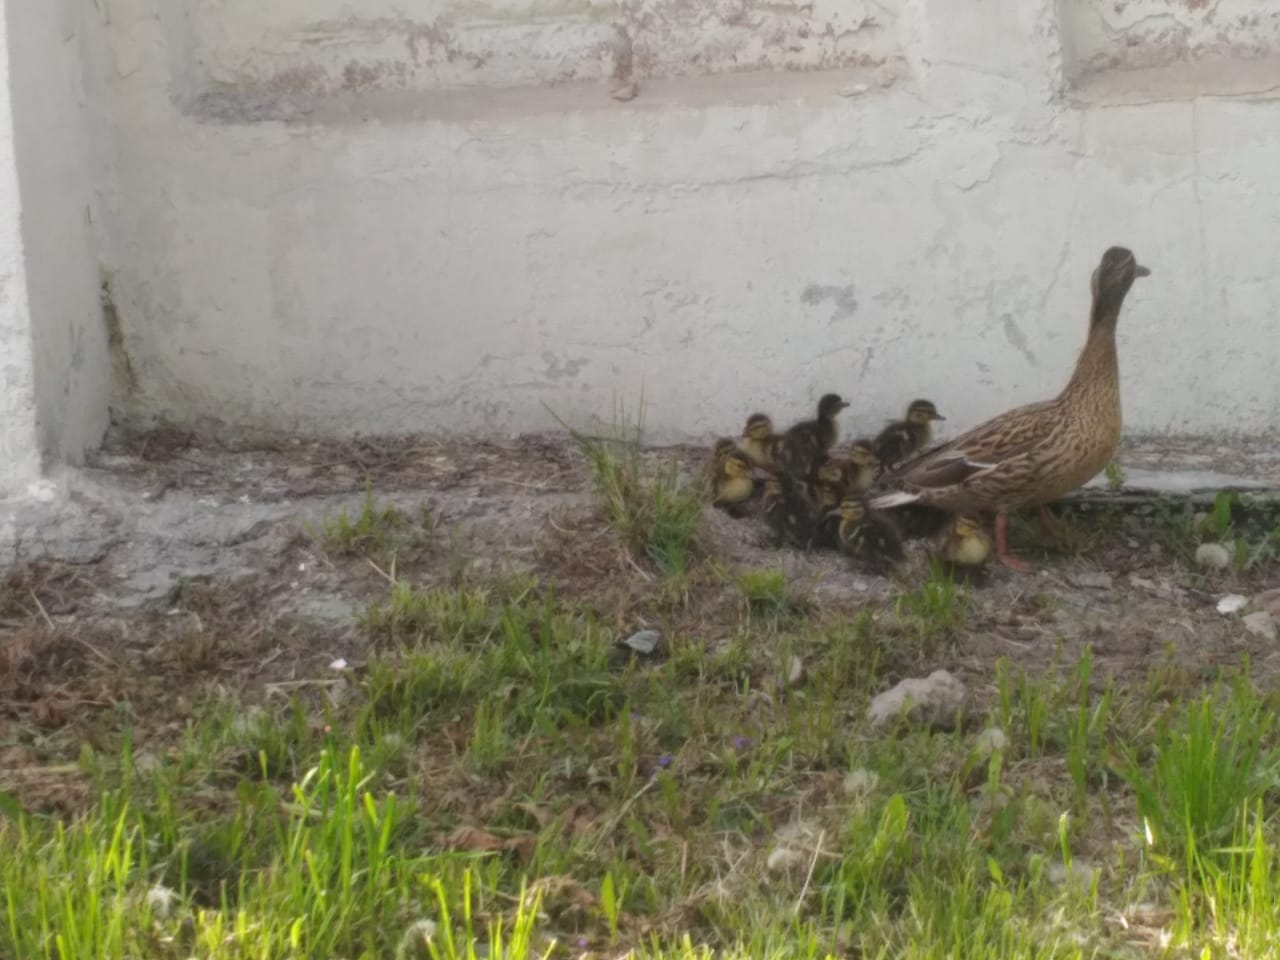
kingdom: Animalia
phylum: Chordata
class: Aves
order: Anseriformes
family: Anatidae
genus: Anas
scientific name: Anas platyrhynchos
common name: Mallard
